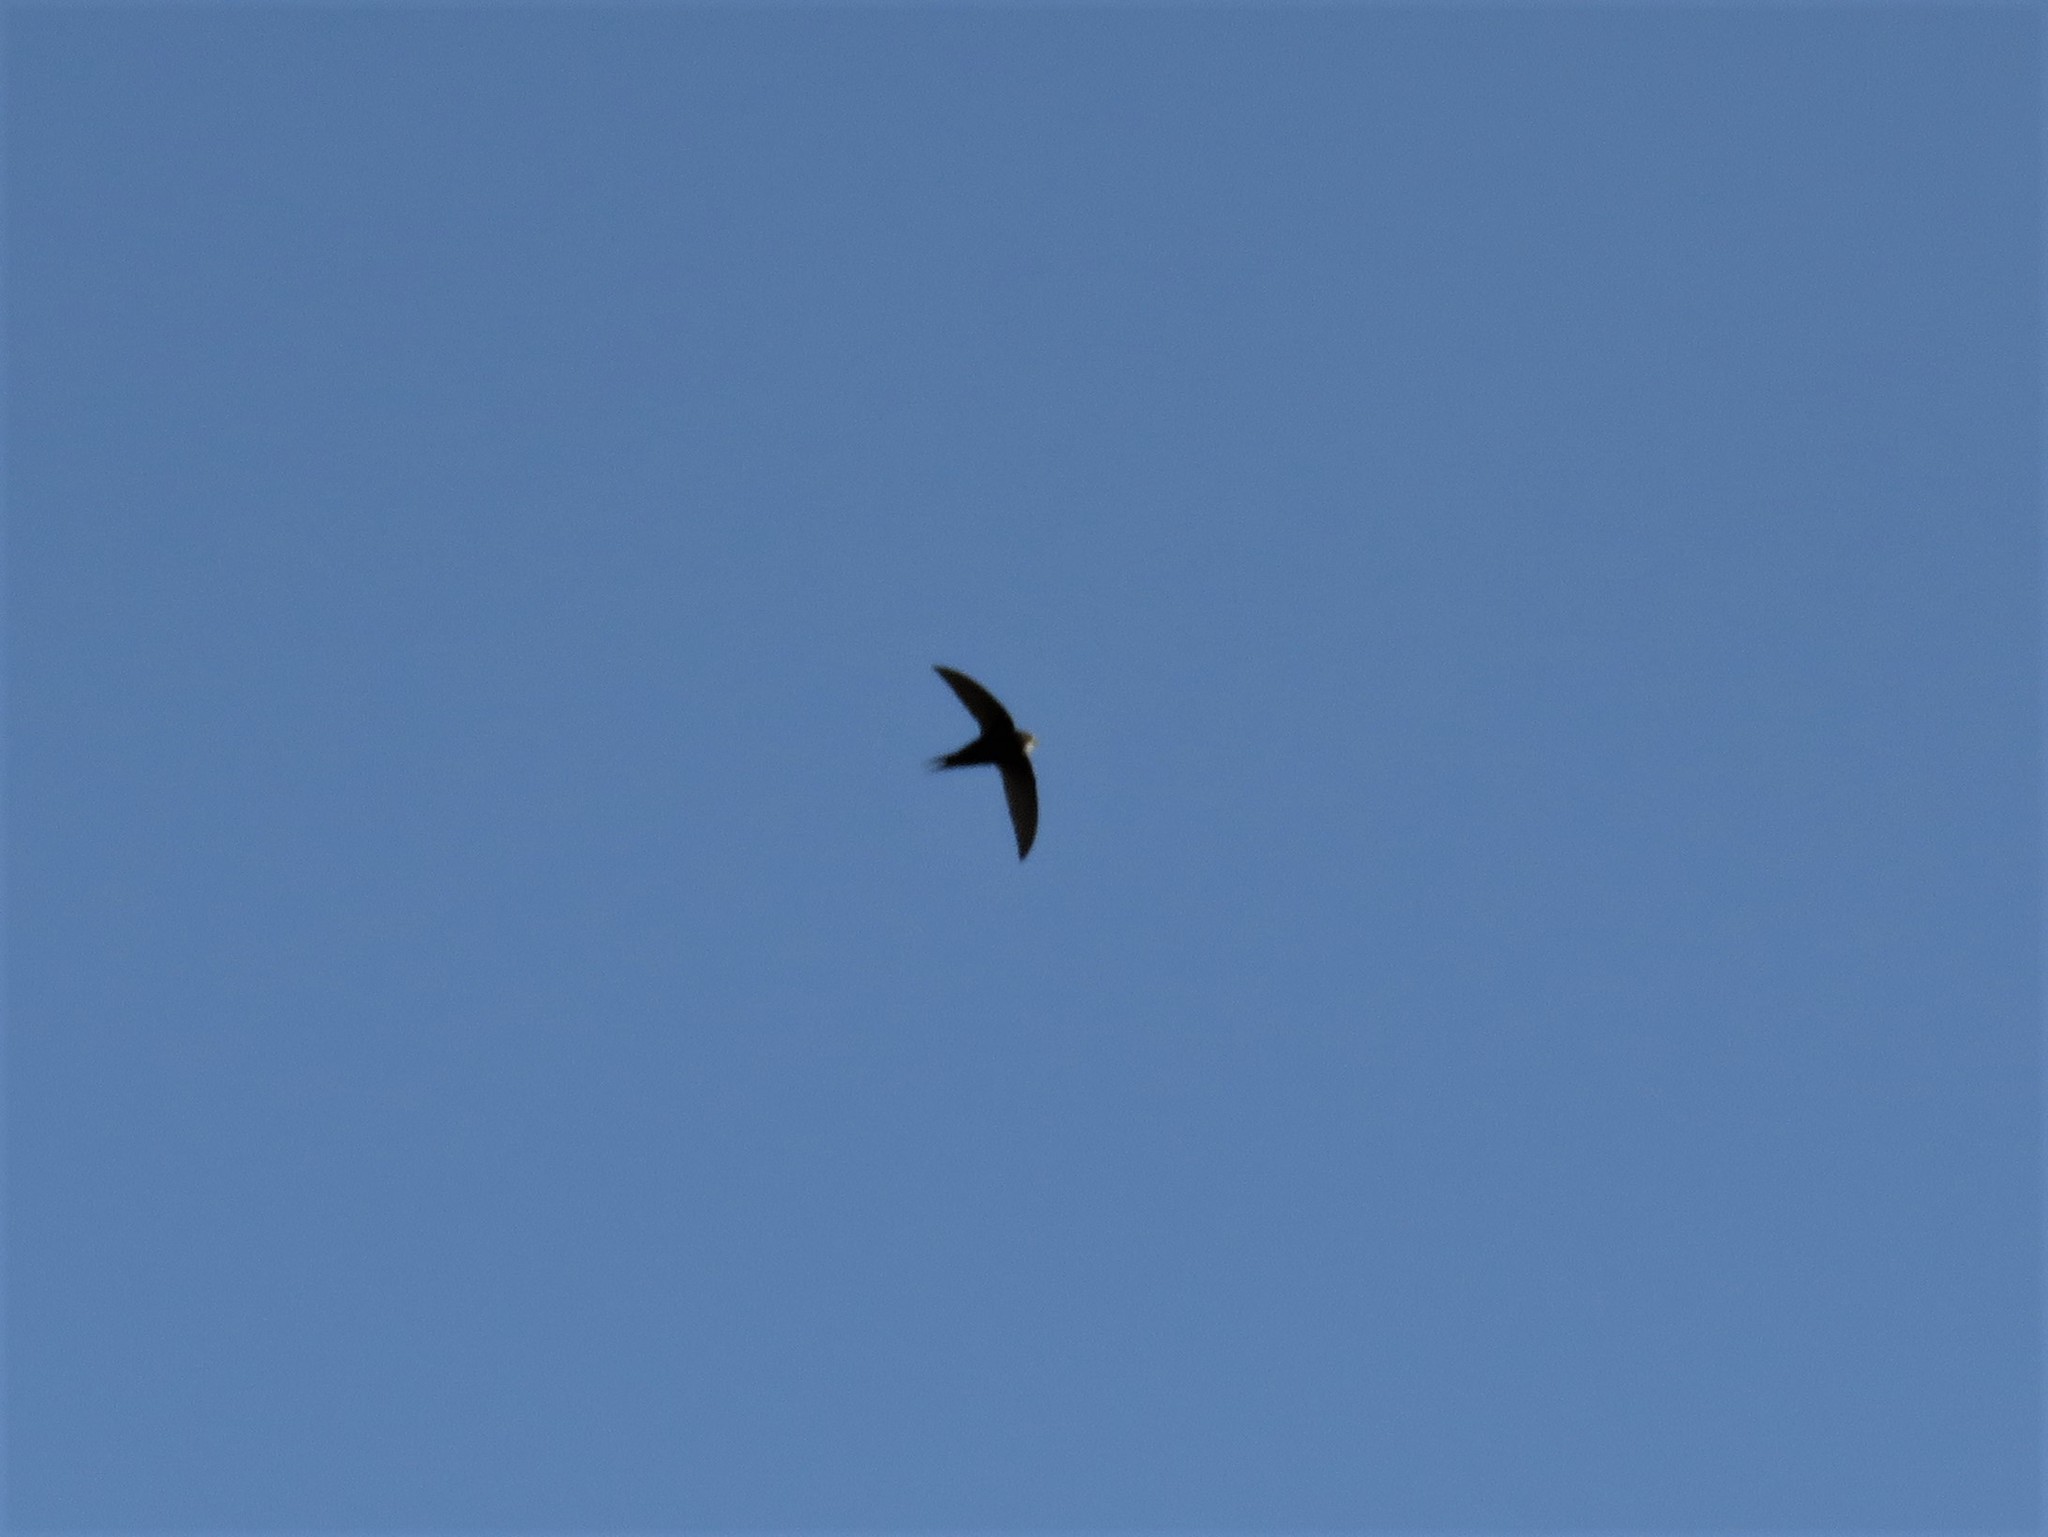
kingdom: Animalia
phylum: Chordata
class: Aves
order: Apodiformes
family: Apodidae
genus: Apus
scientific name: Apus caffer
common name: White-rumped swift
